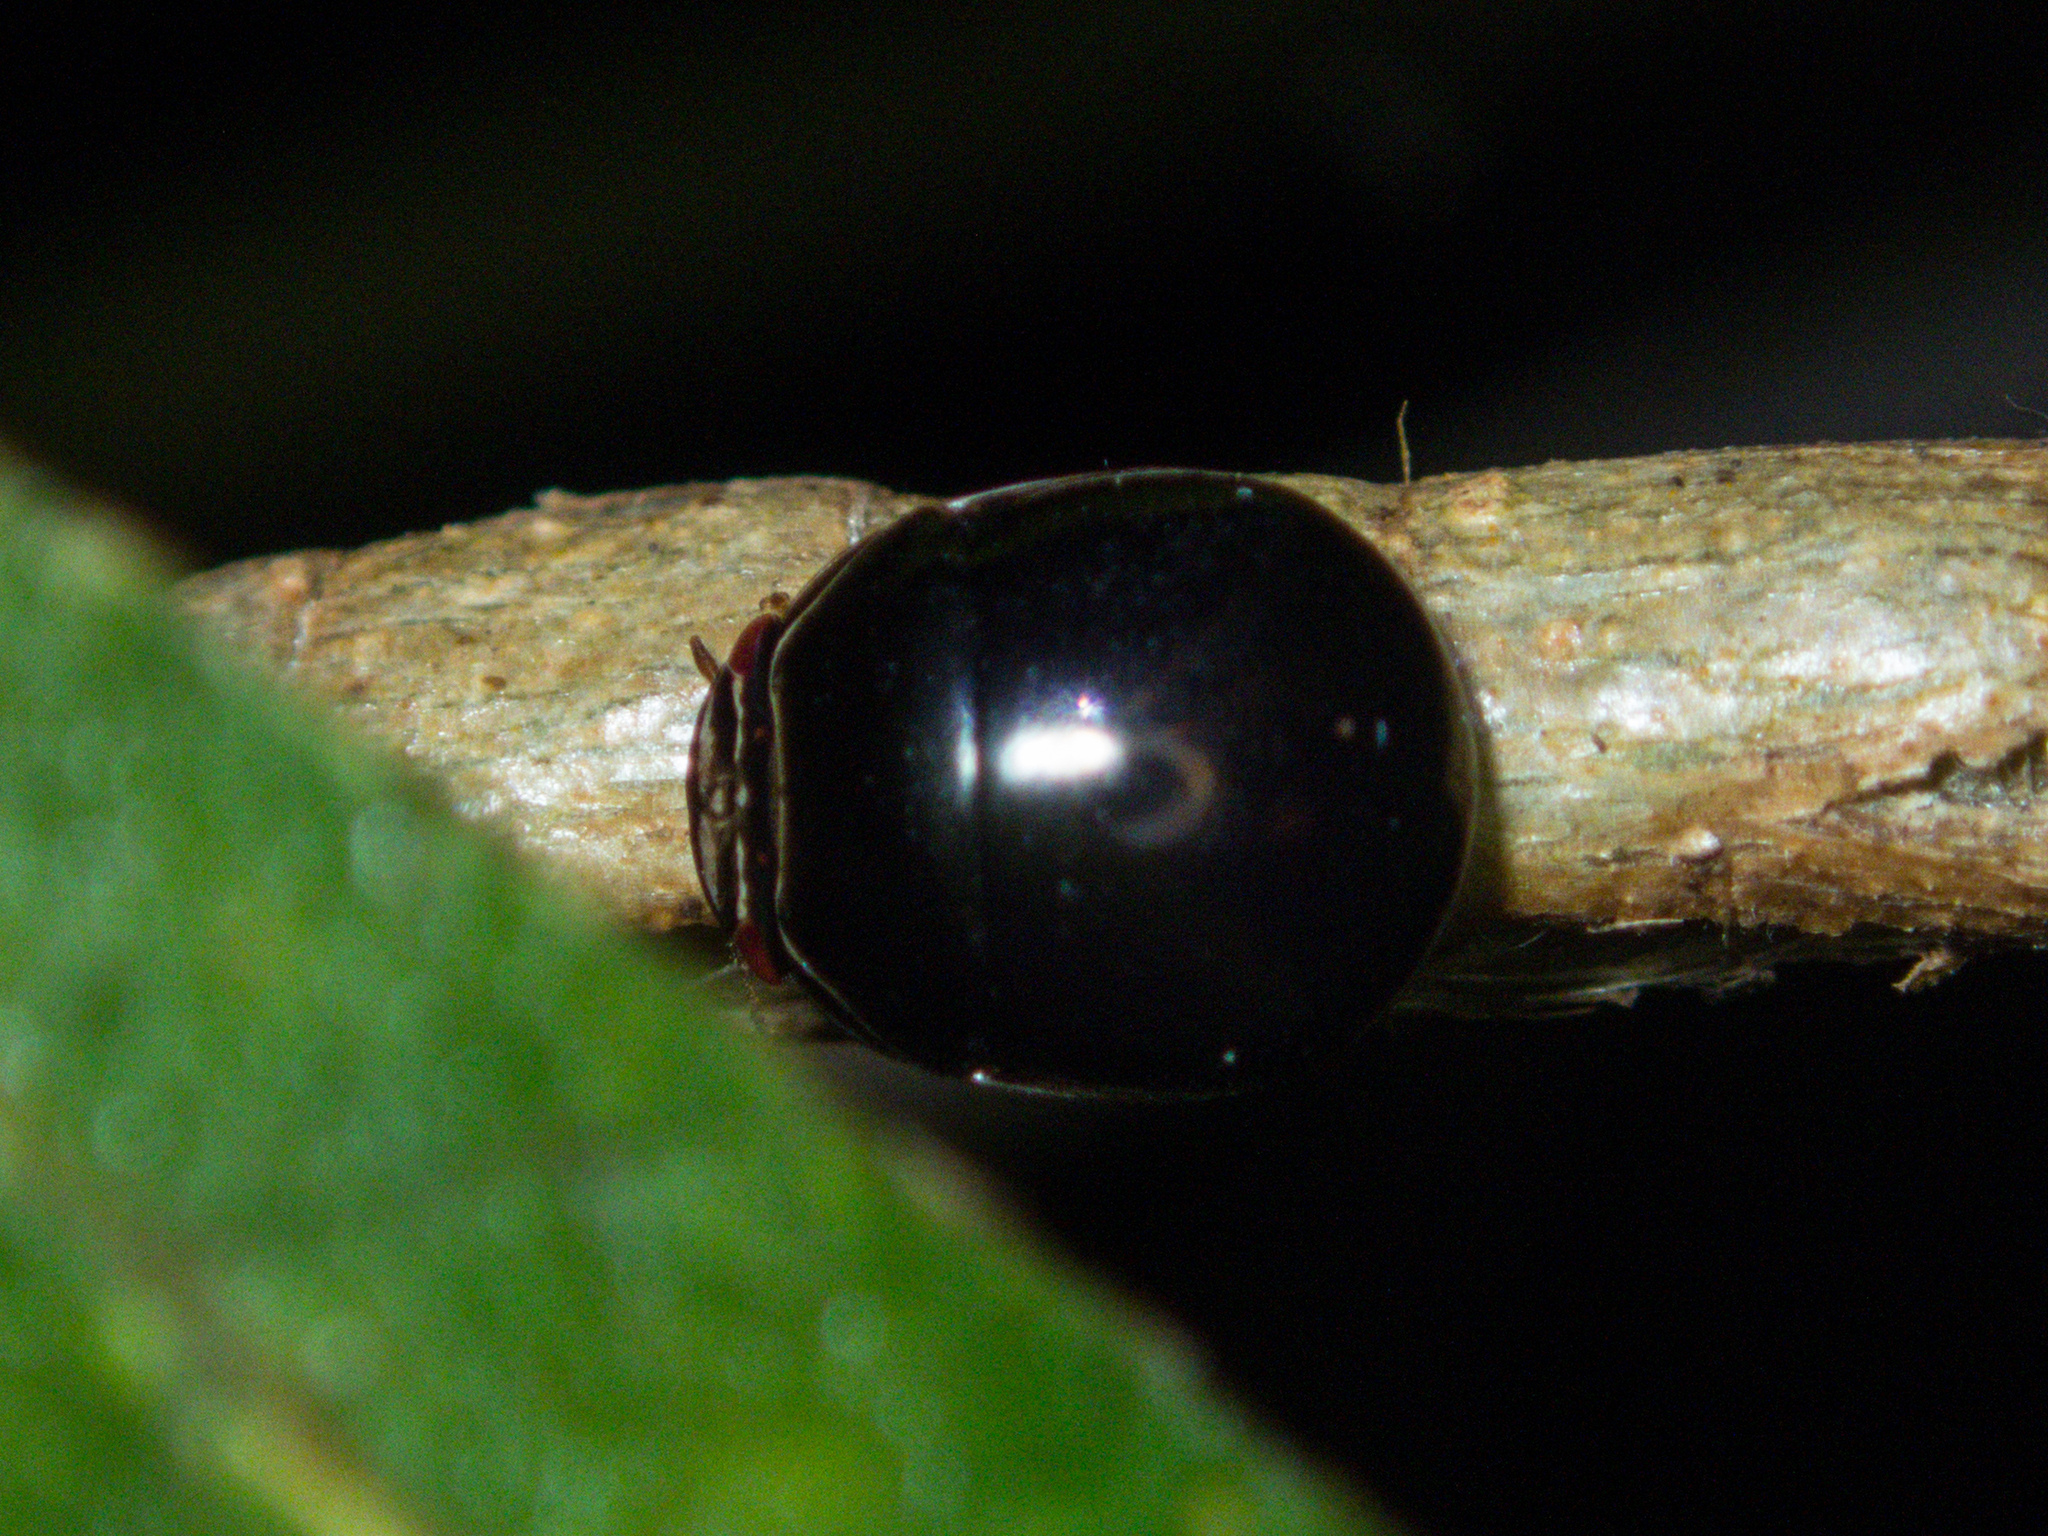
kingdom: Animalia
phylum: Arthropoda
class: Insecta
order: Hemiptera
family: Plataspidae
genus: Brachyplatys
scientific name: Brachyplatys subaeneus
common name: Black bean bug
